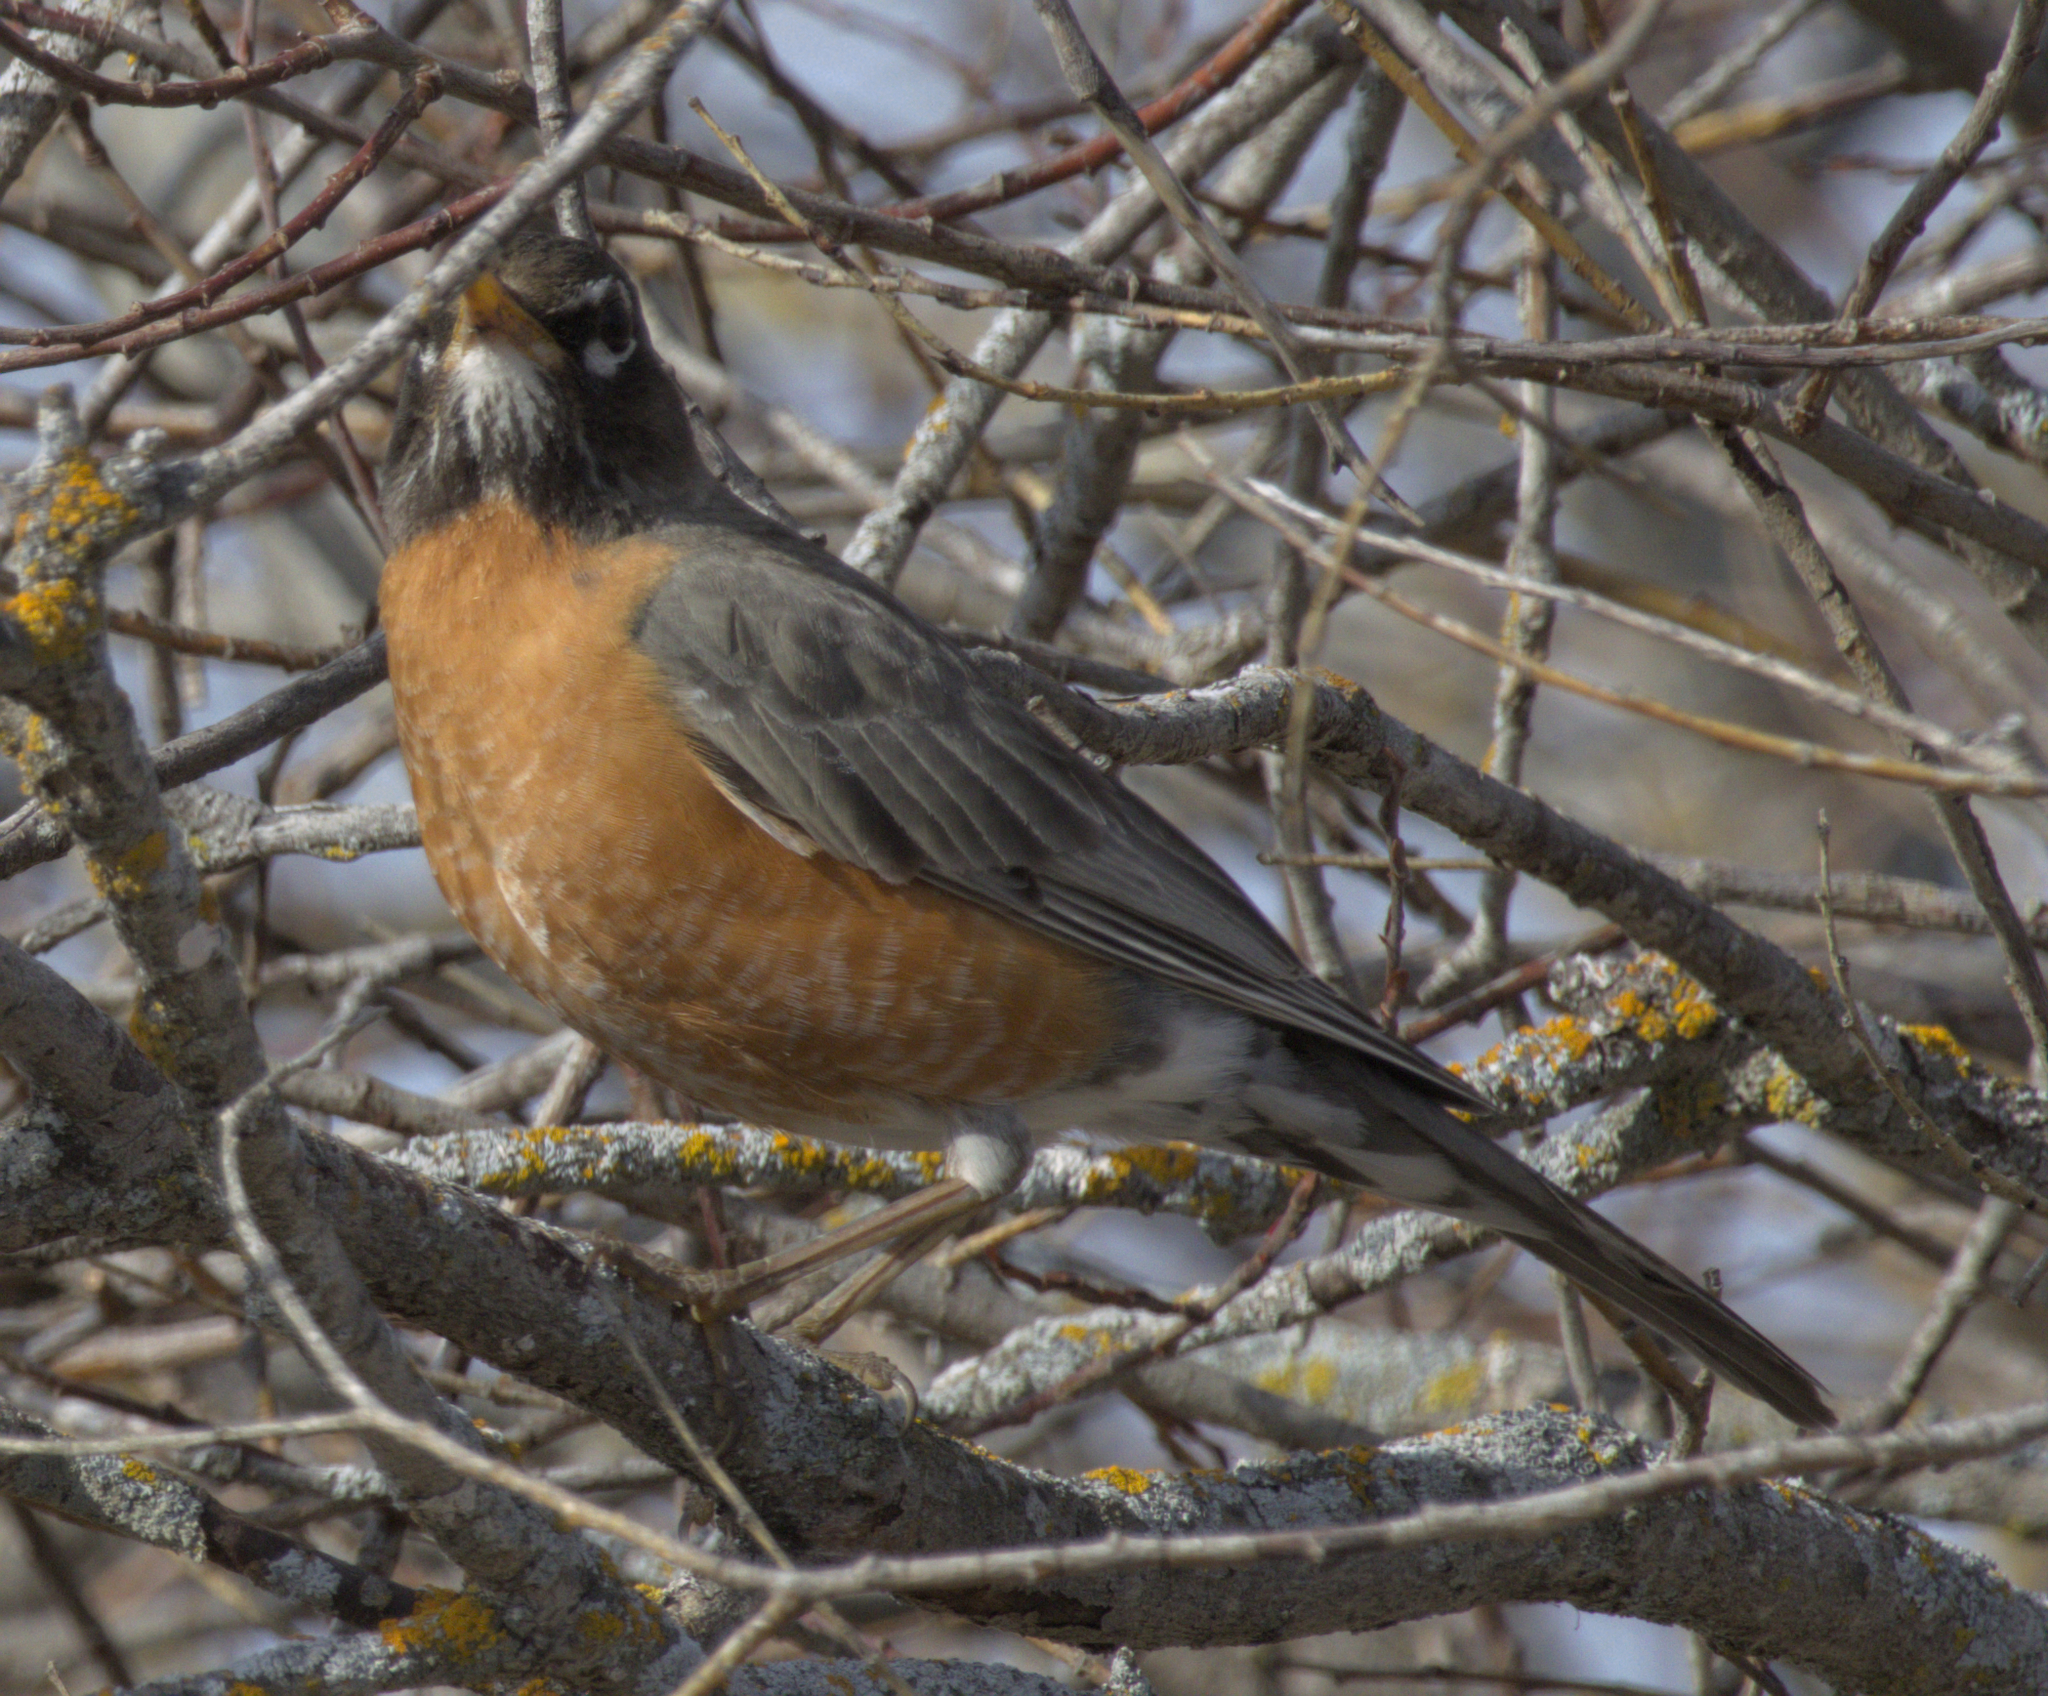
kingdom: Animalia
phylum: Chordata
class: Aves
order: Passeriformes
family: Turdidae
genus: Turdus
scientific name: Turdus migratorius
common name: American robin
